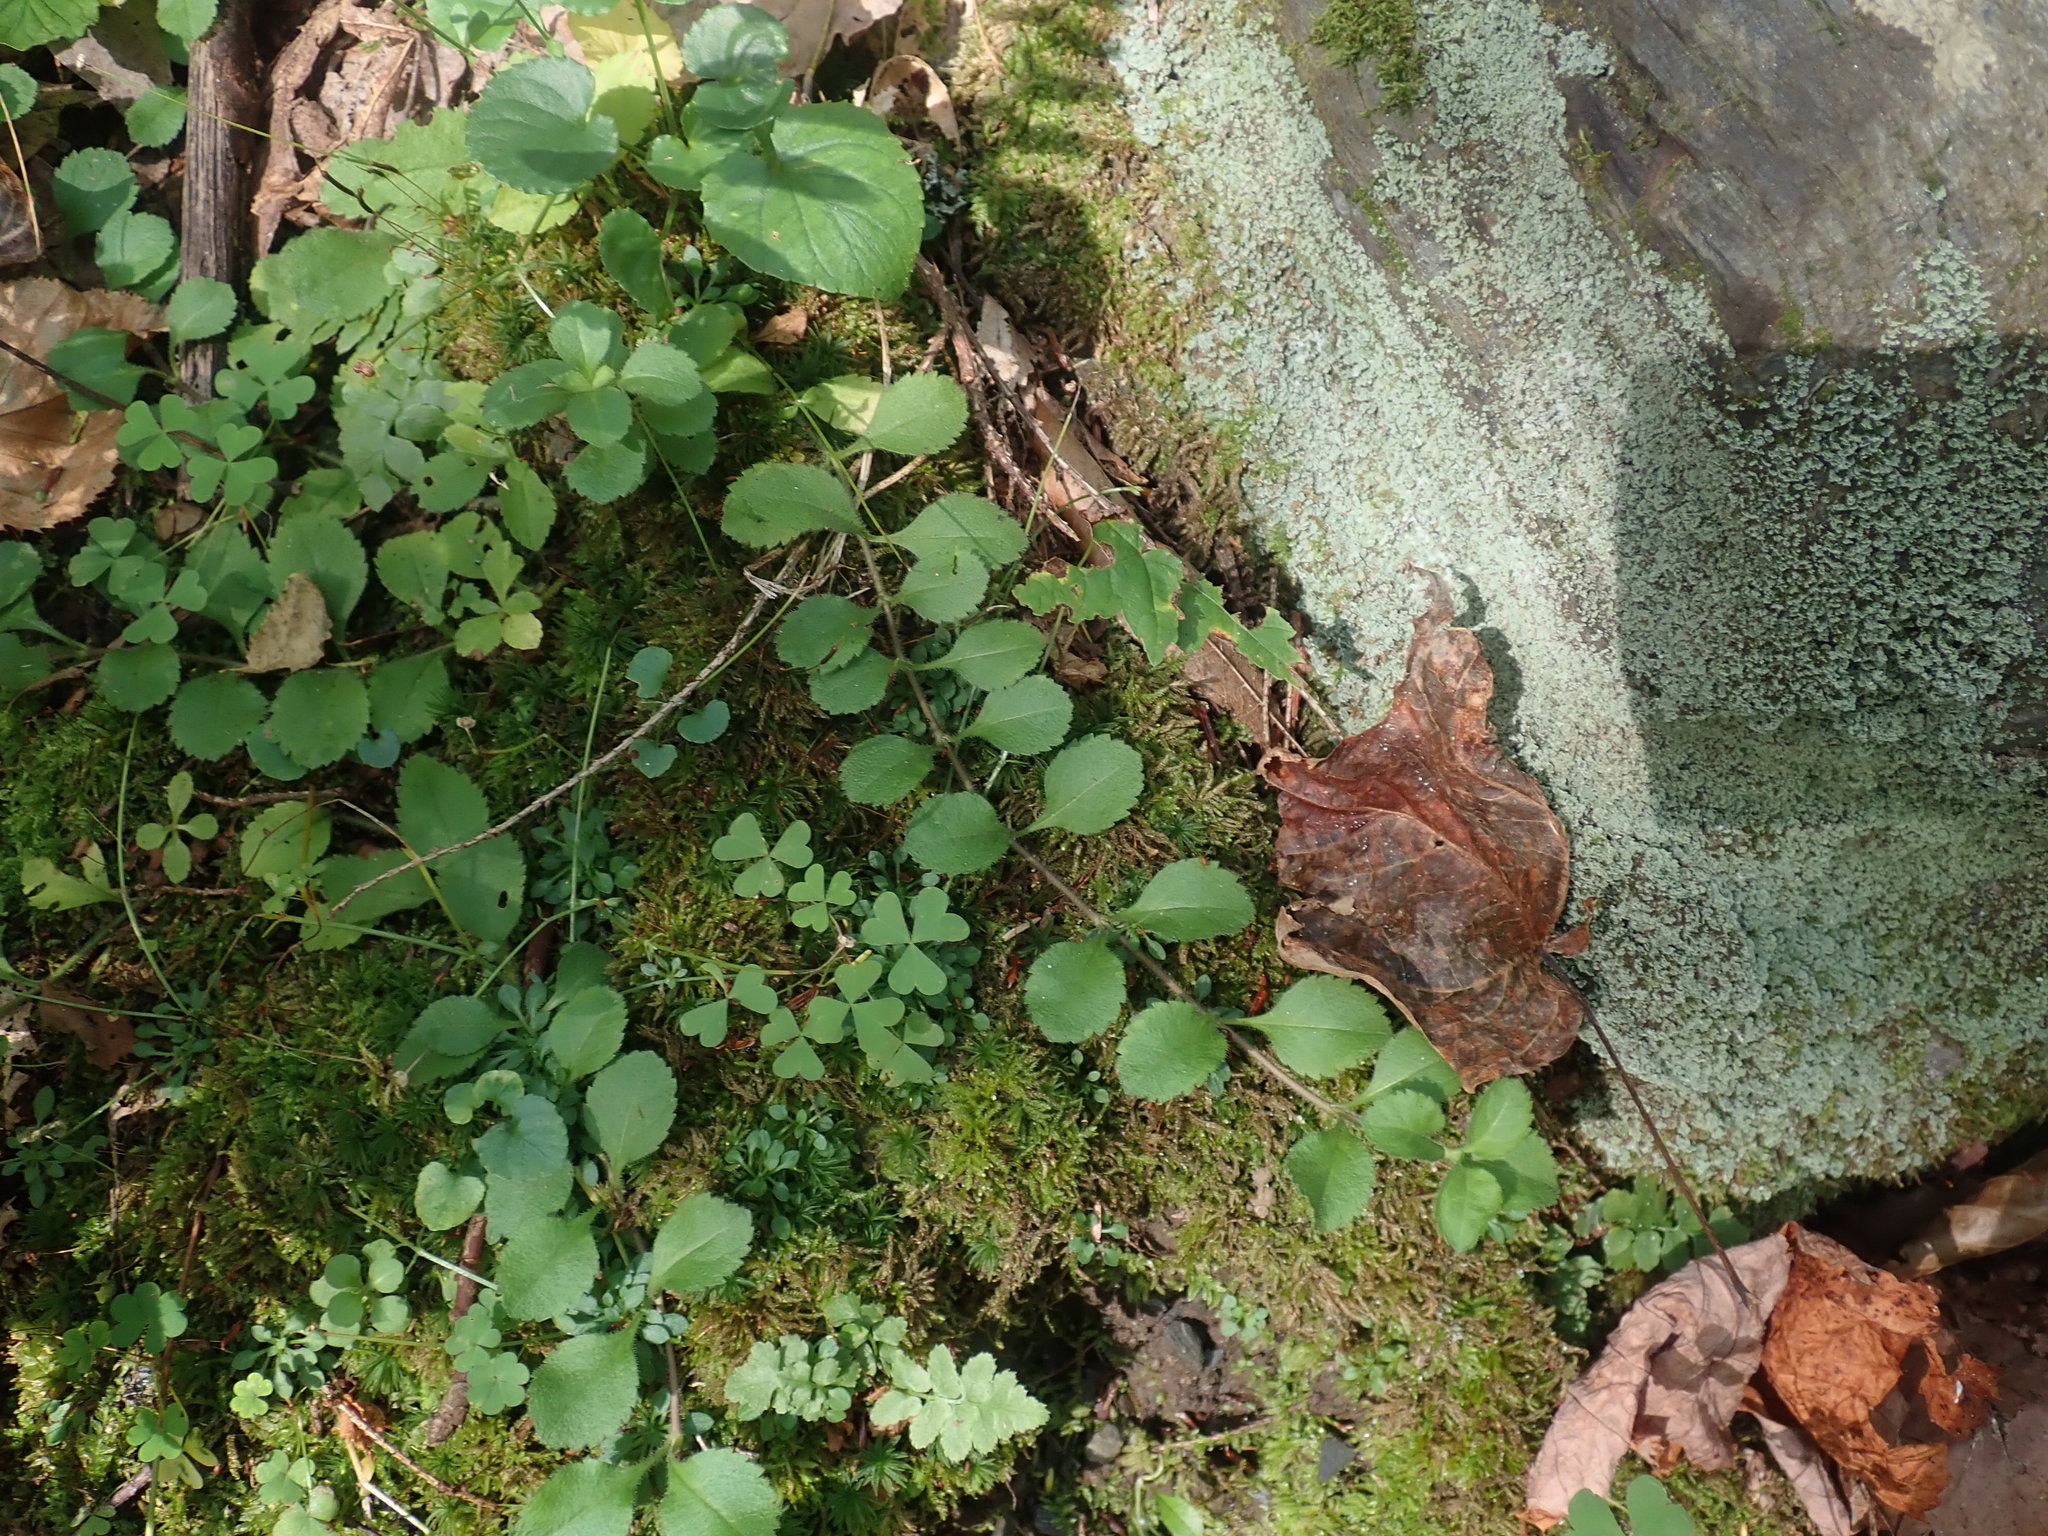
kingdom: Plantae
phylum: Tracheophyta
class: Magnoliopsida
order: Lamiales
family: Plantaginaceae
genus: Veronica
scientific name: Veronica officinalis
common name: Common speedwell
